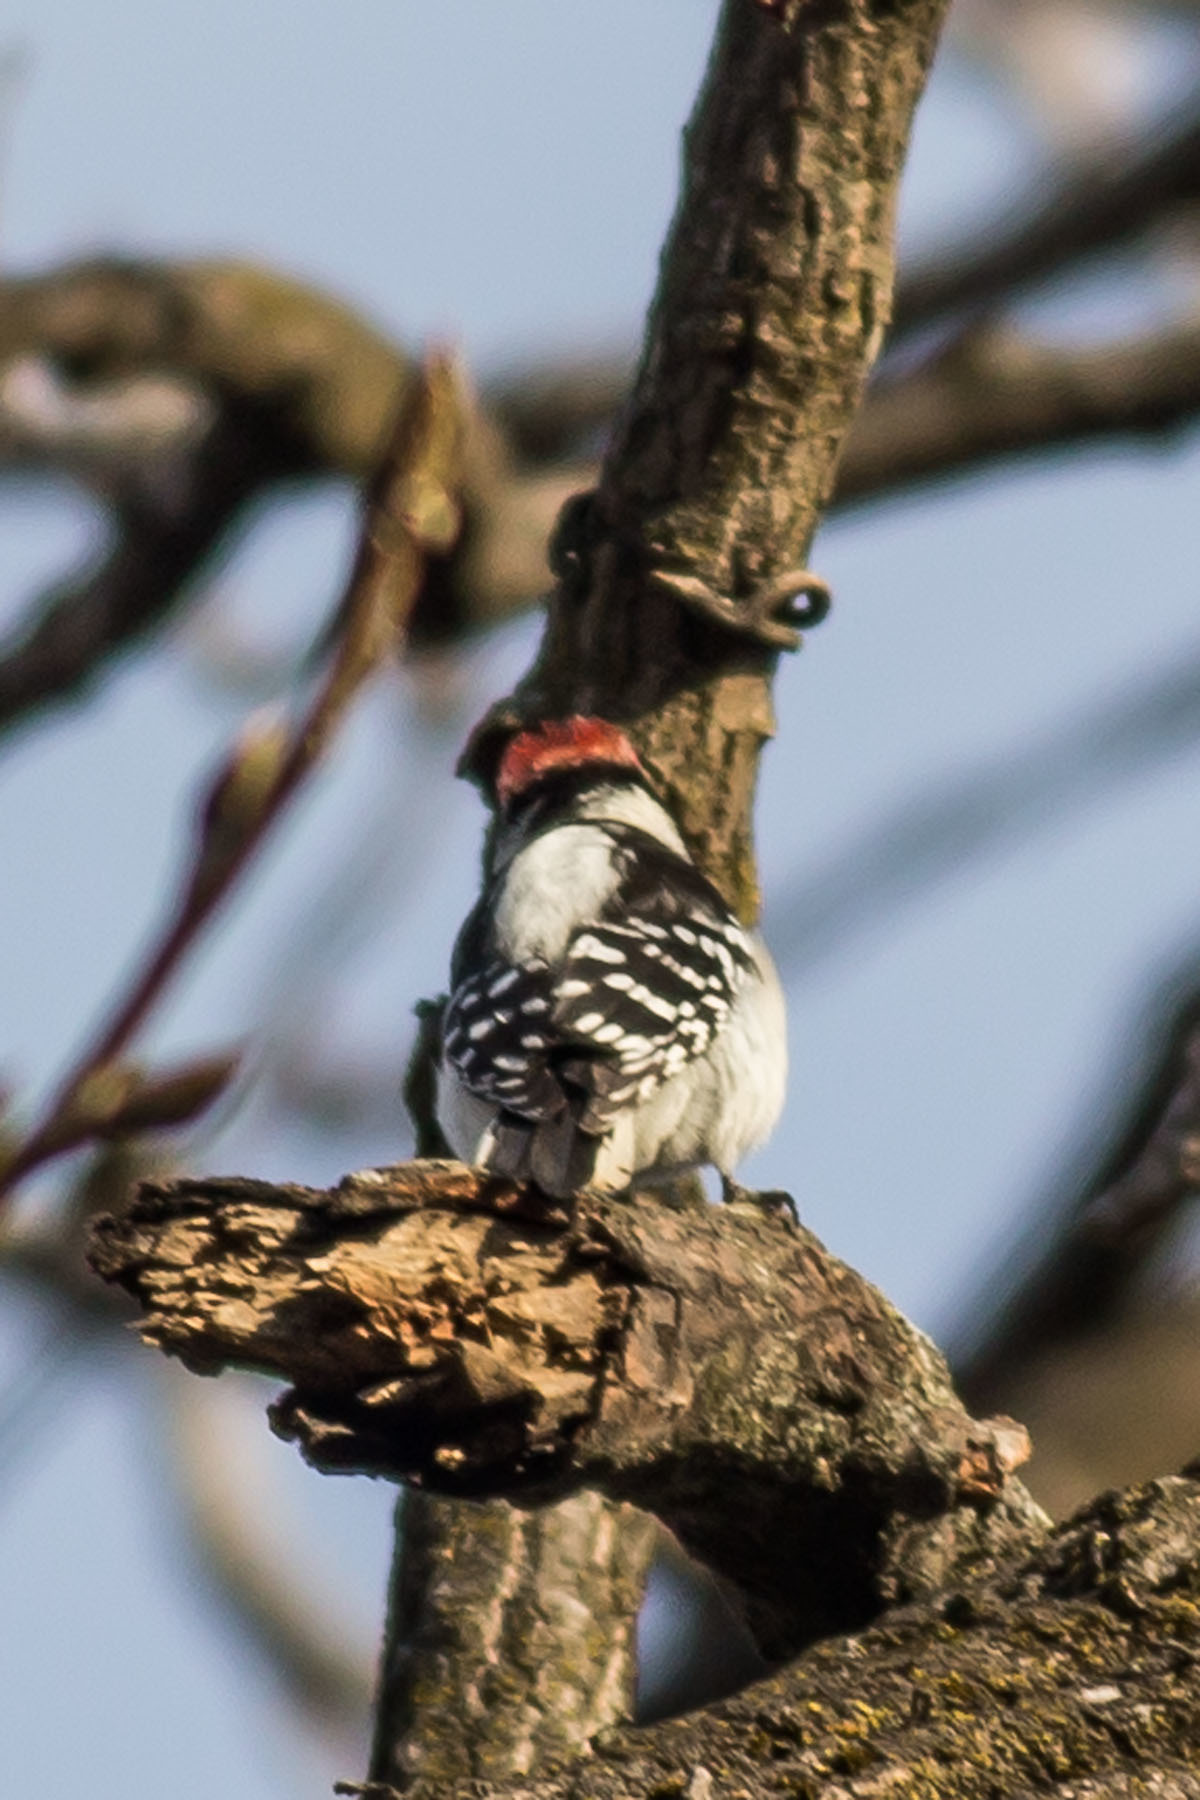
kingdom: Animalia
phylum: Chordata
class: Aves
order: Piciformes
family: Picidae
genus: Dryobates
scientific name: Dryobates pubescens
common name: Downy woodpecker
